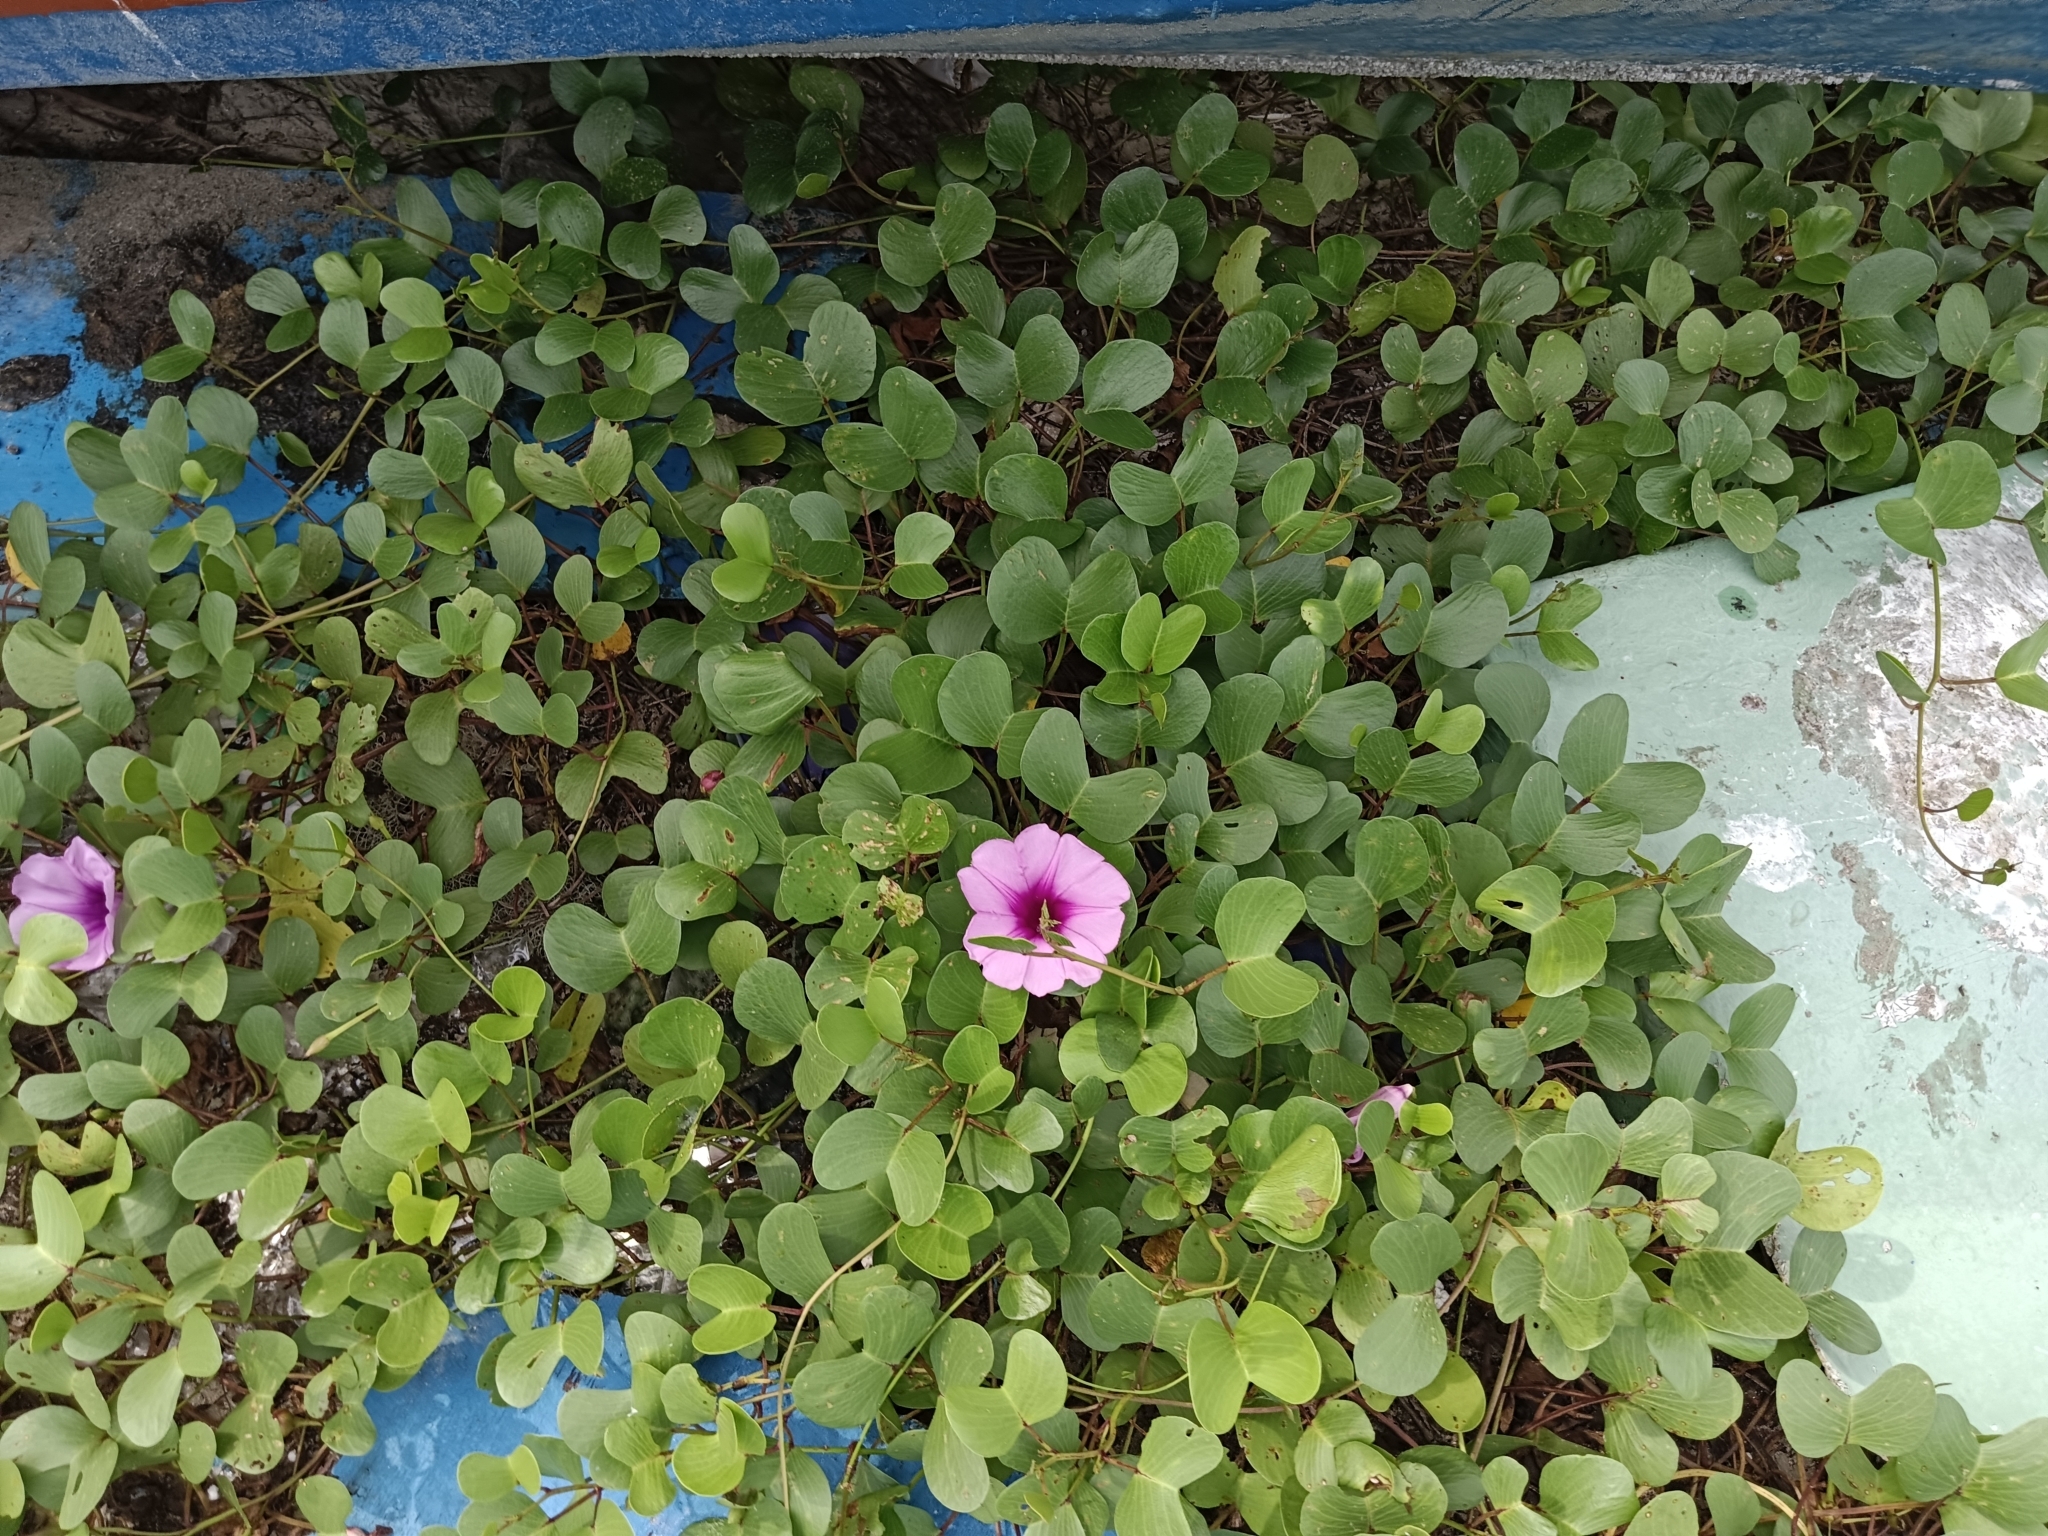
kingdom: Plantae
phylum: Tracheophyta
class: Magnoliopsida
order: Solanales
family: Convolvulaceae
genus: Ipomoea
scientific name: Ipomoea pes-caprae
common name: Beach morning glory
